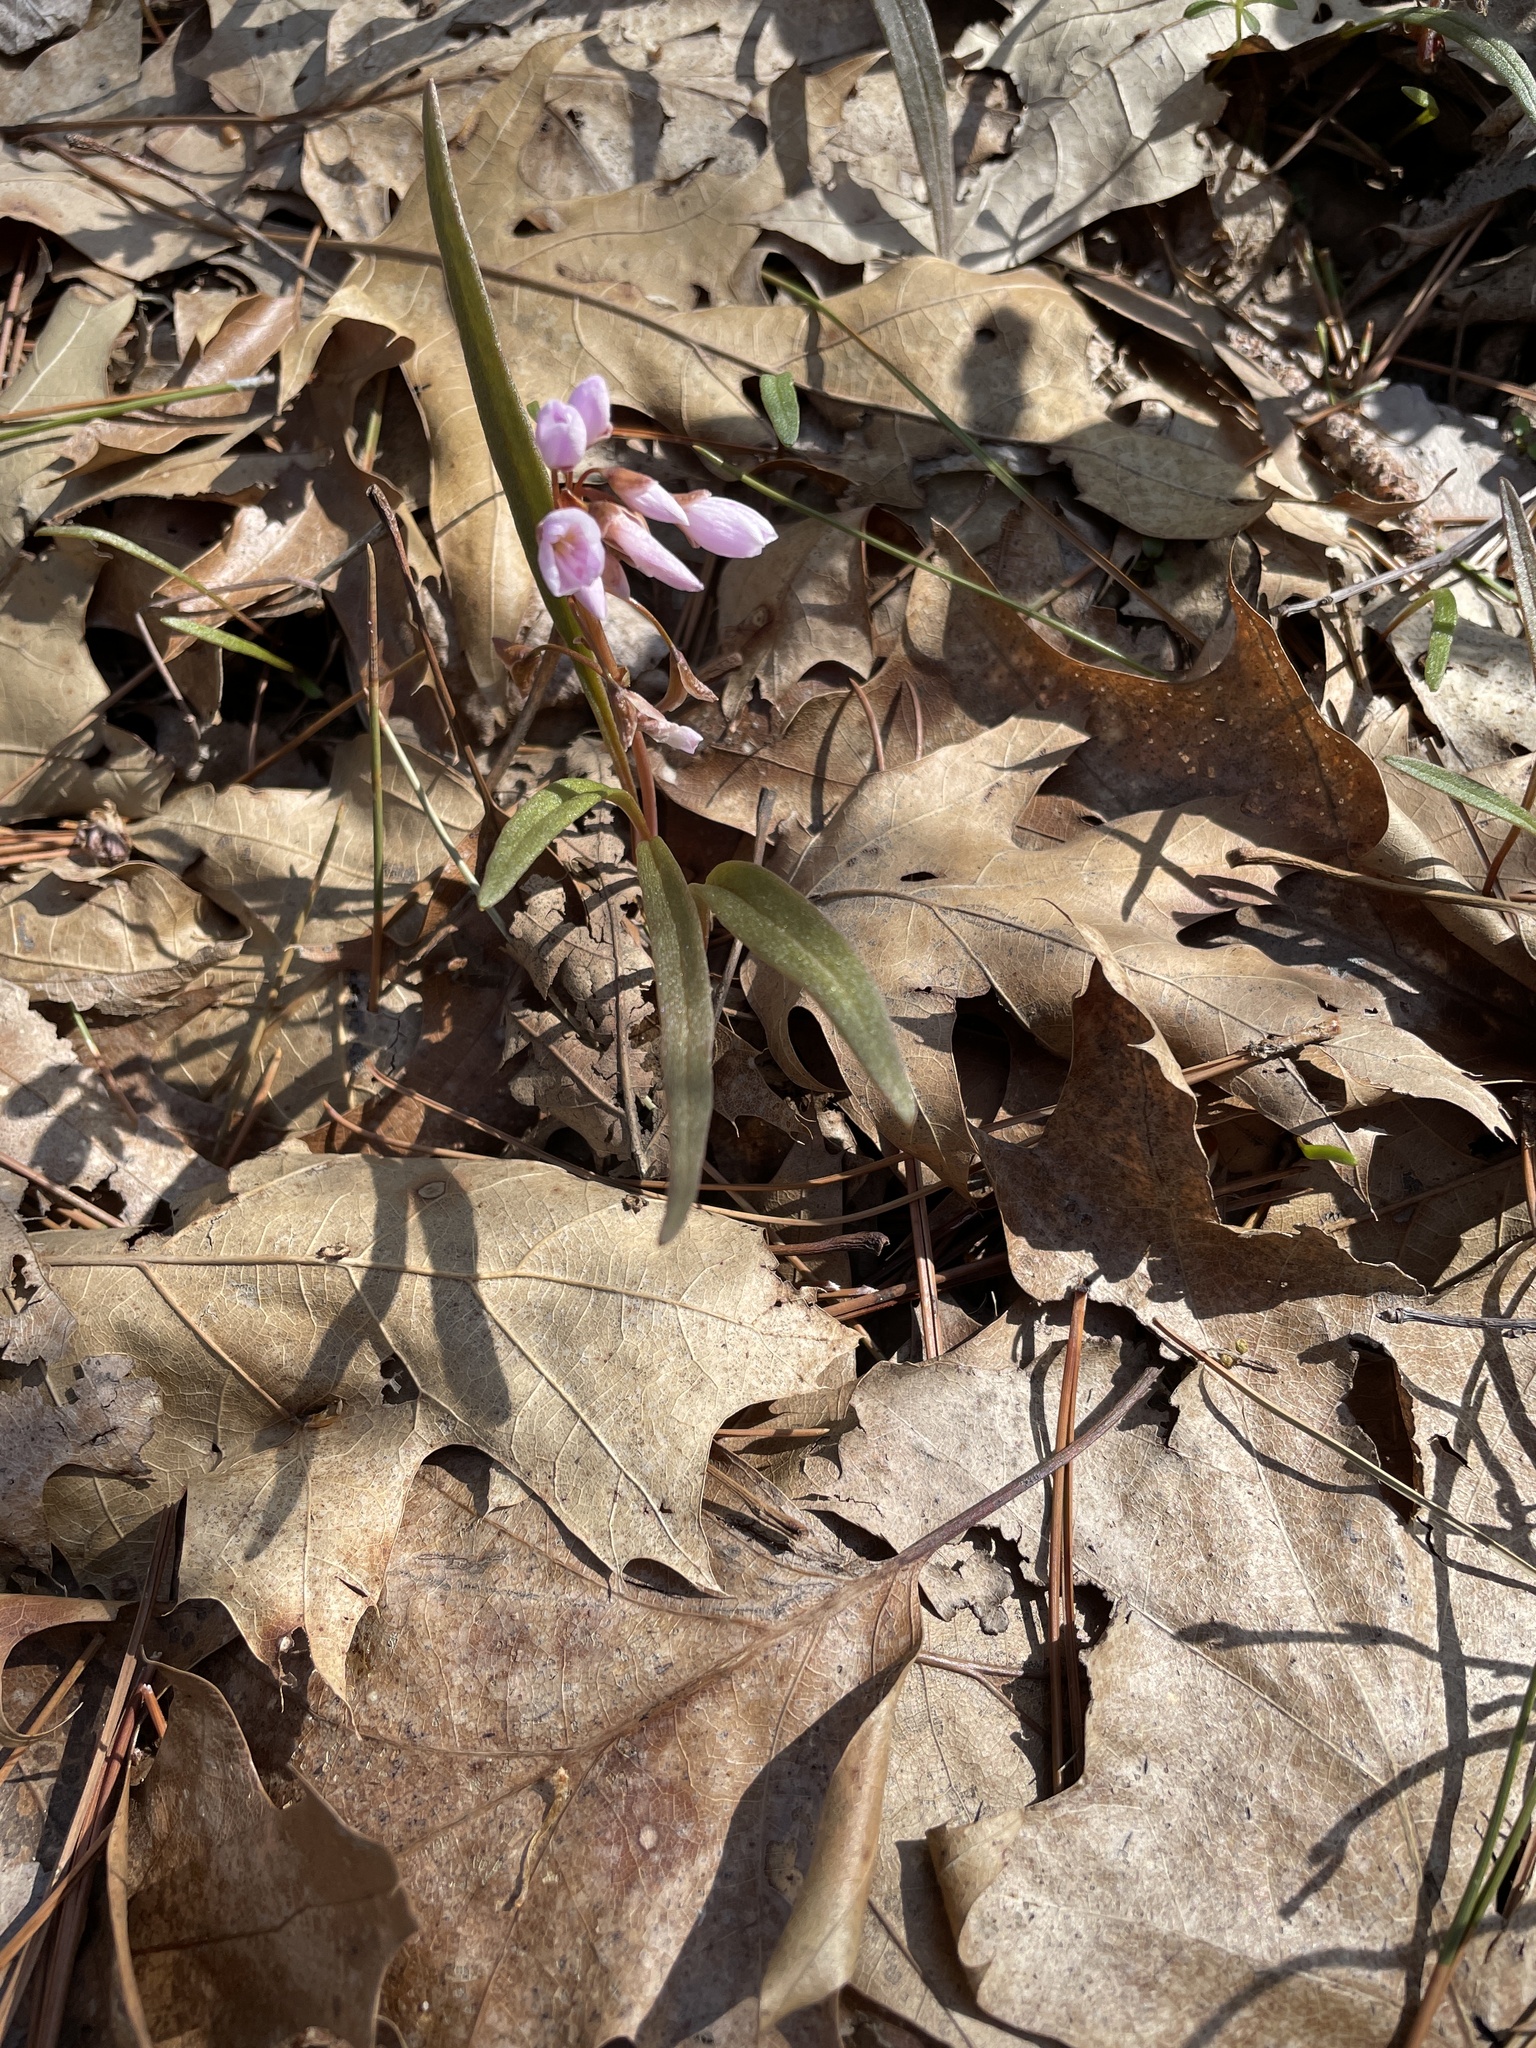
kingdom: Plantae
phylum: Tracheophyta
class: Magnoliopsida
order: Caryophyllales
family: Montiaceae
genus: Claytonia
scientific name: Claytonia virginica
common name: Virginia springbeauty
